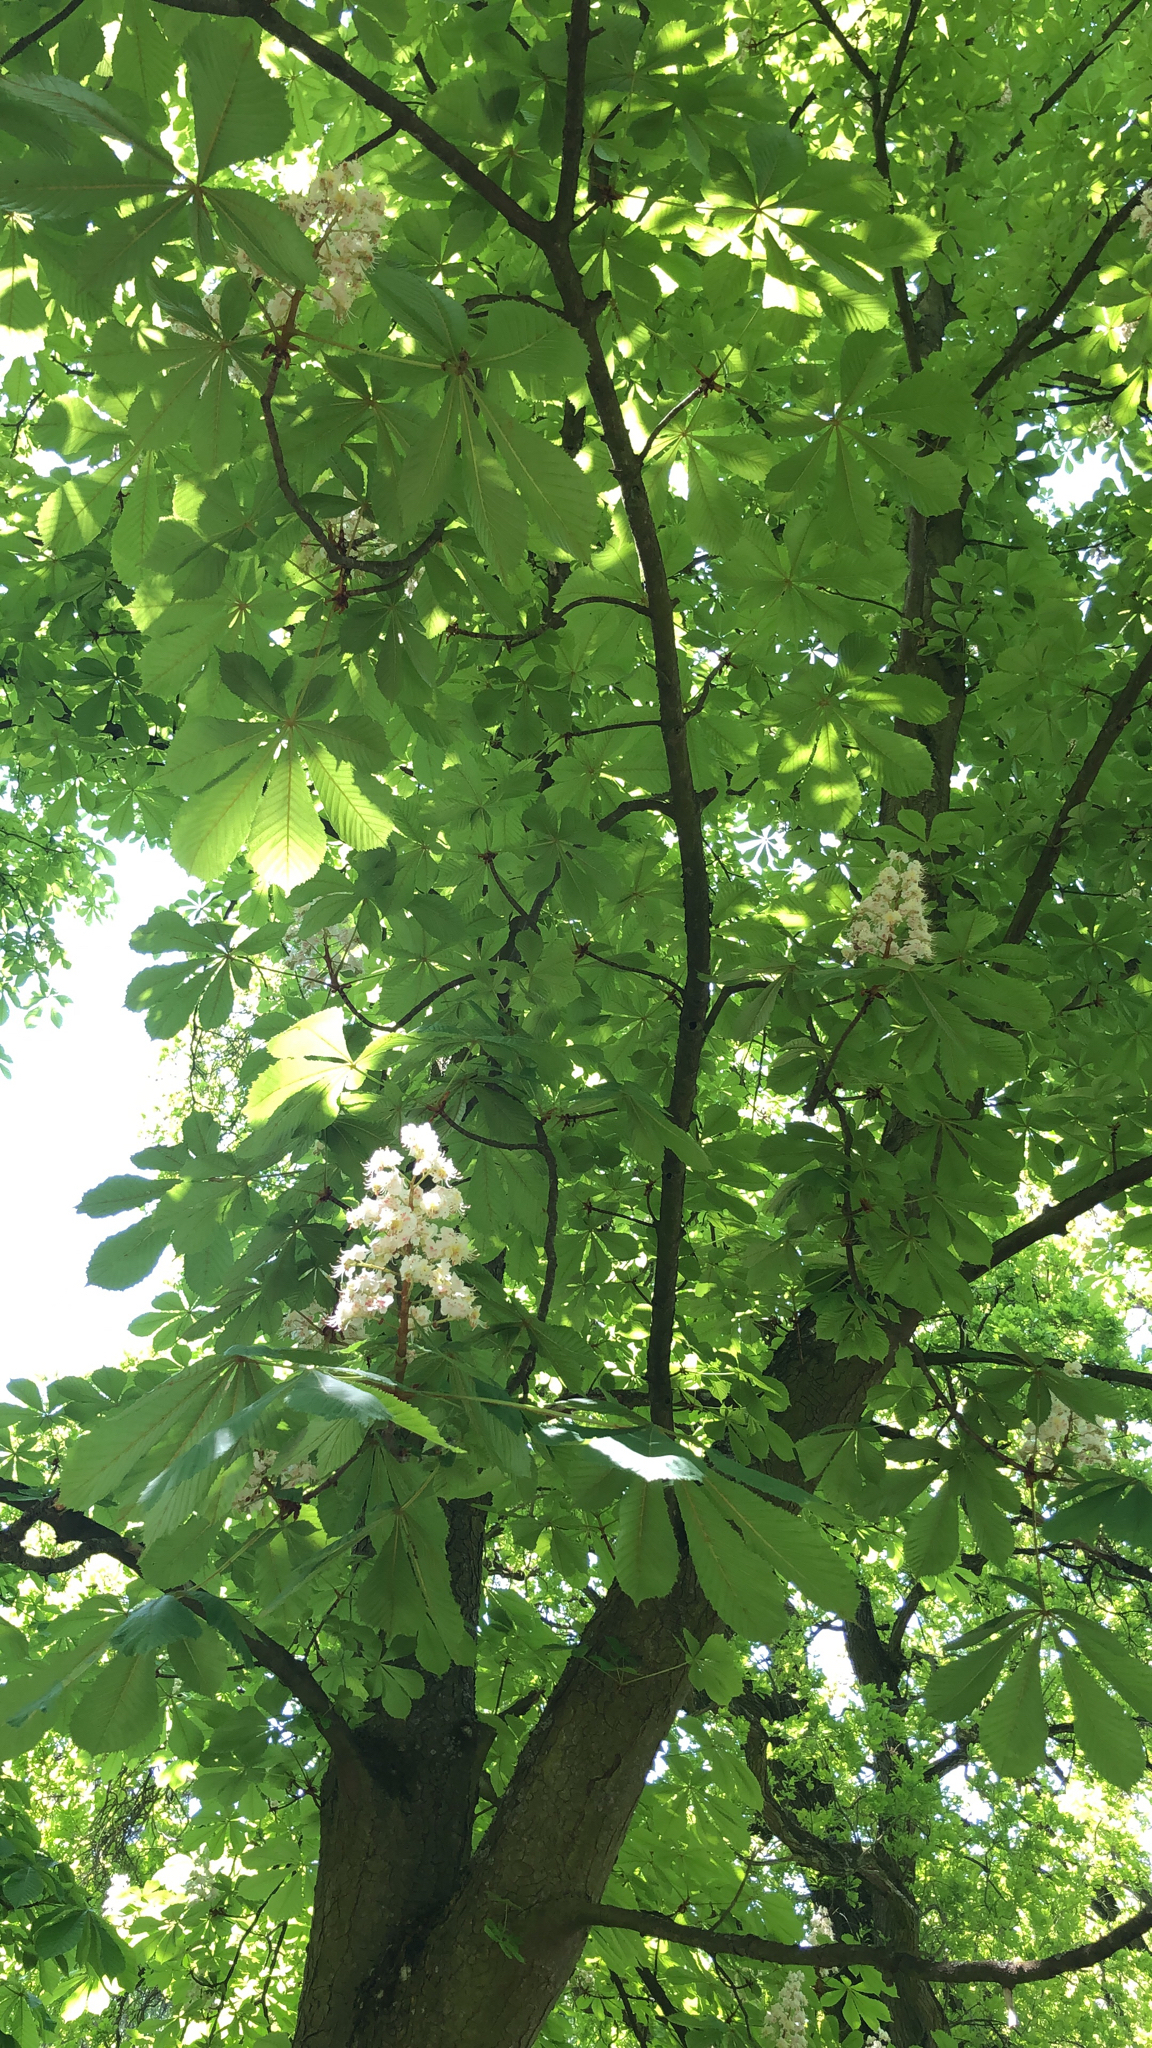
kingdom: Plantae
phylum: Tracheophyta
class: Magnoliopsida
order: Sapindales
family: Sapindaceae
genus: Aesculus
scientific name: Aesculus hippocastanum
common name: Horse-chestnut
